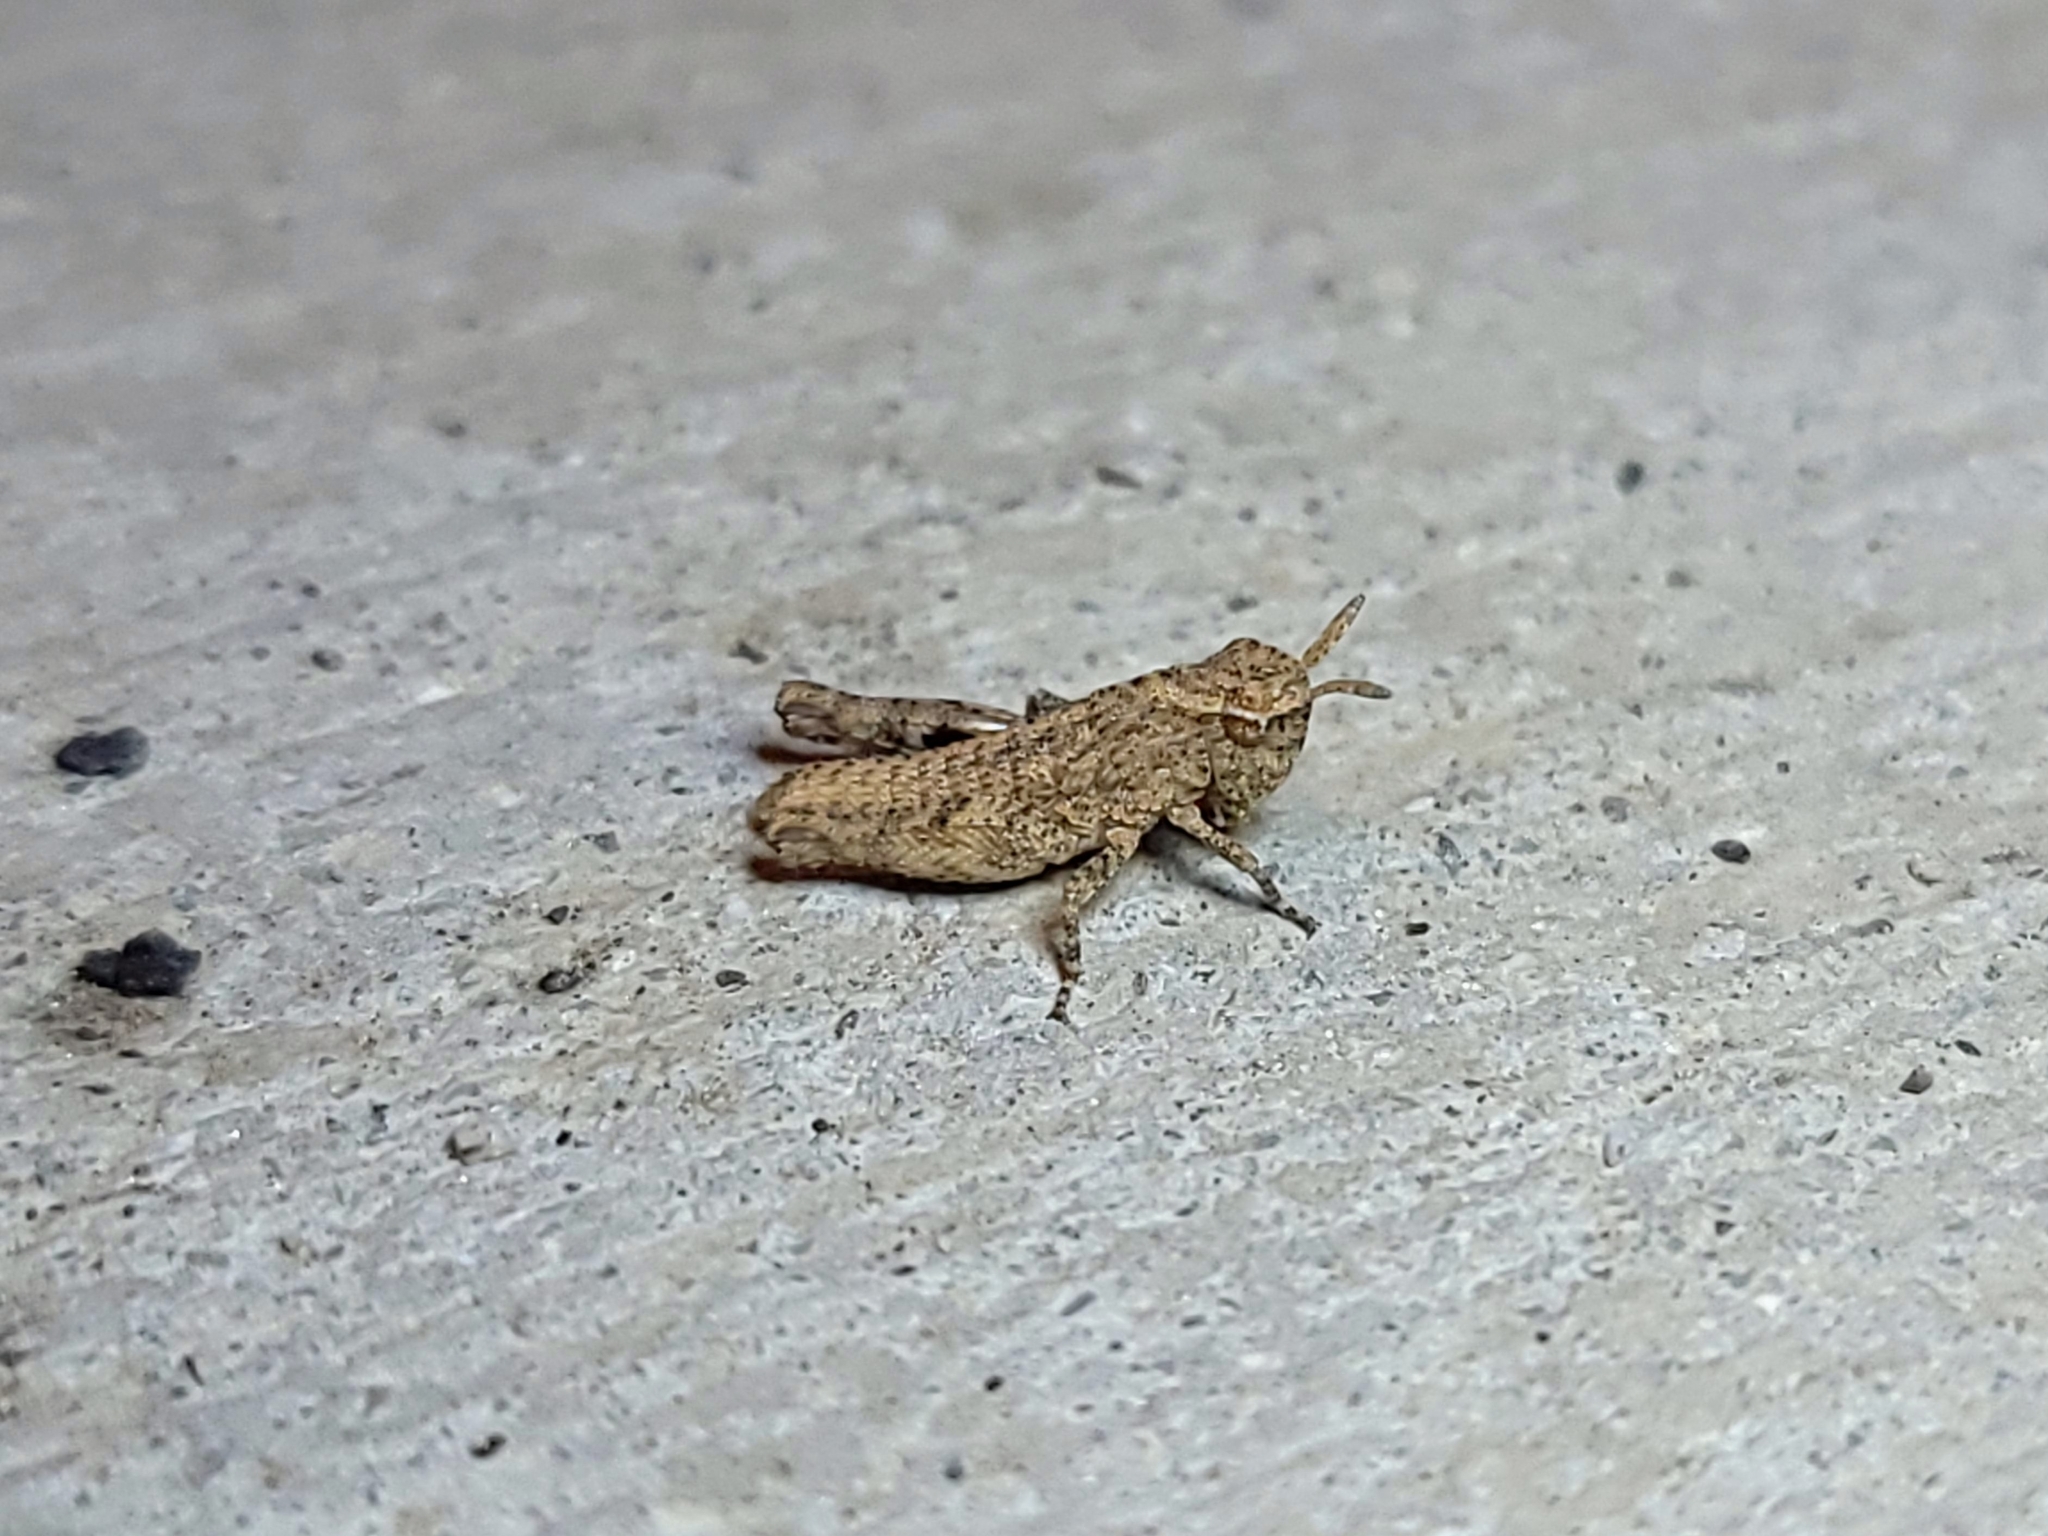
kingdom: Animalia
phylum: Arthropoda
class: Insecta
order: Orthoptera
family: Acrididae
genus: Chimarocephala
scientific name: Chimarocephala pacifica
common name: Painted meadow grasshopper
